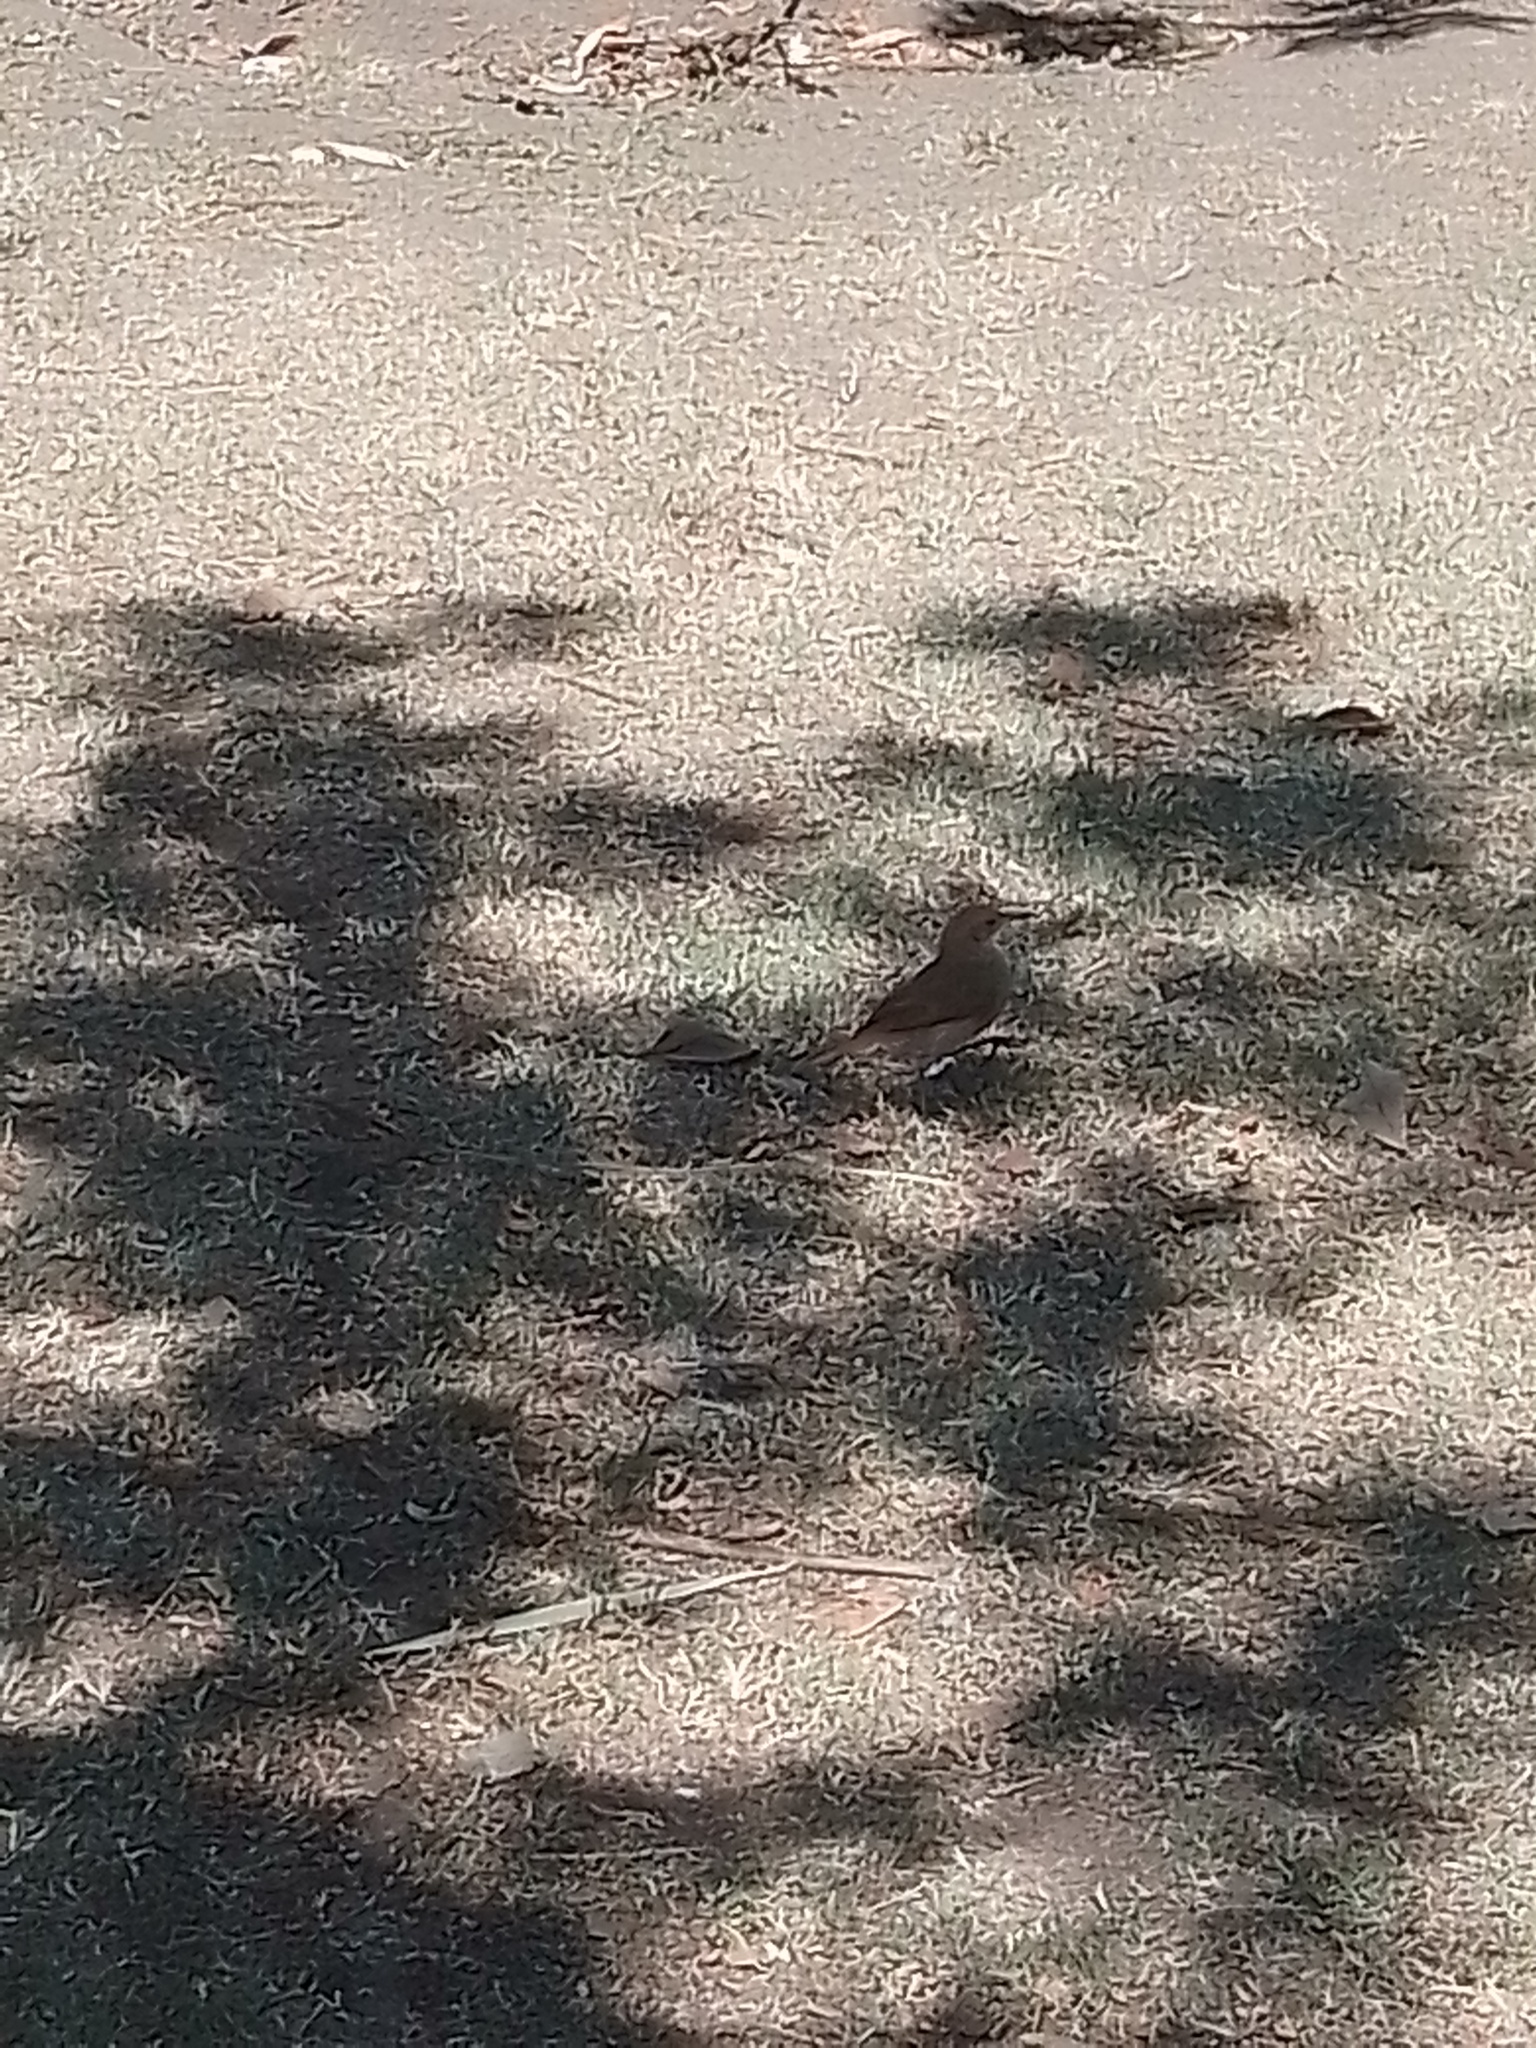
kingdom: Animalia
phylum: Chordata
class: Aves
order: Passeriformes
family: Furnariidae
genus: Furnarius
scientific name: Furnarius rufus
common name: Rufous hornero
